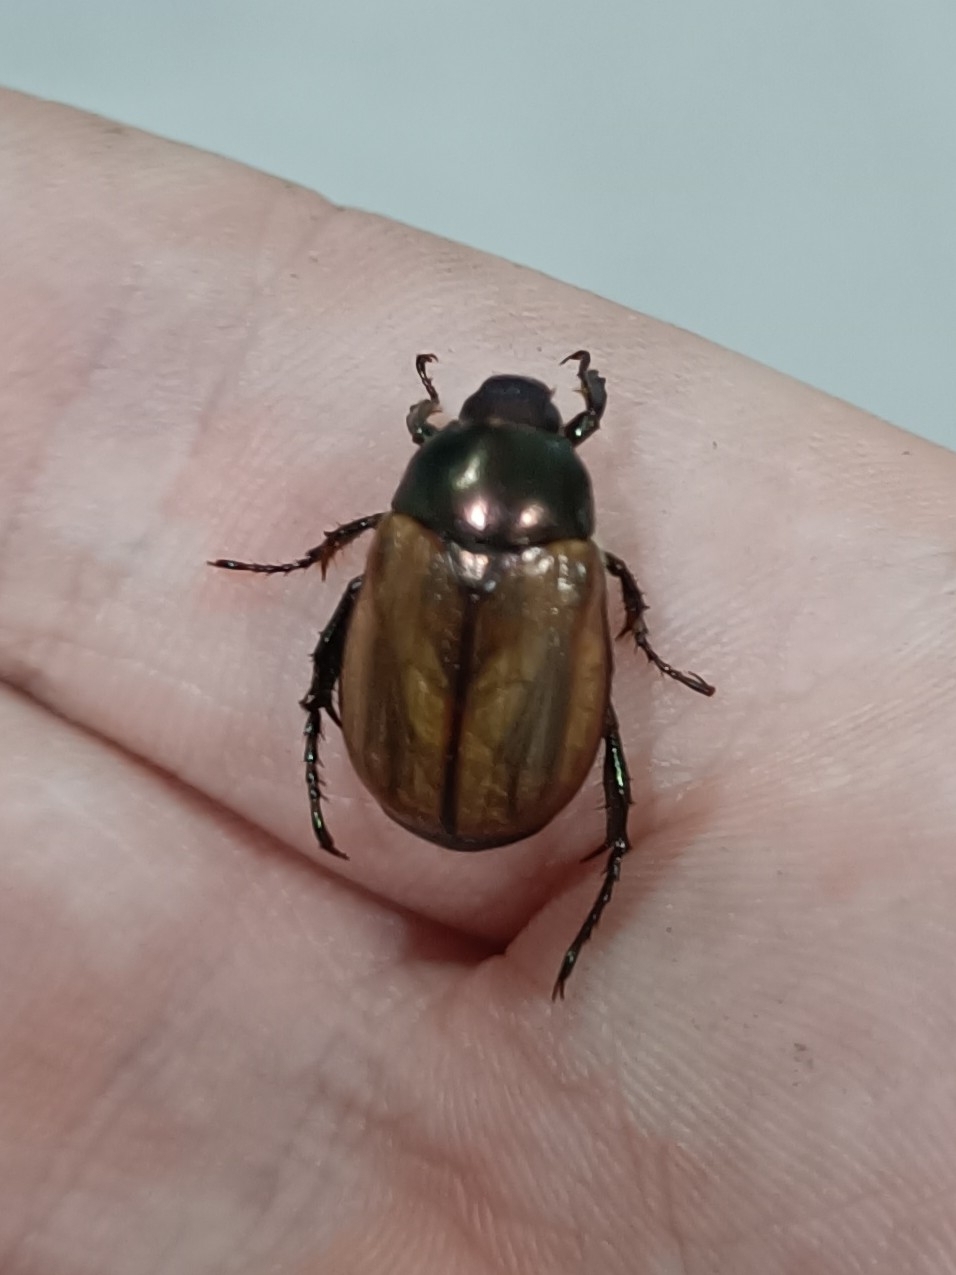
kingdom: Animalia
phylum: Arthropoda
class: Insecta
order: Coleoptera
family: Scarabaeidae
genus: Paranomala
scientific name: Paranomala testaceipennis
